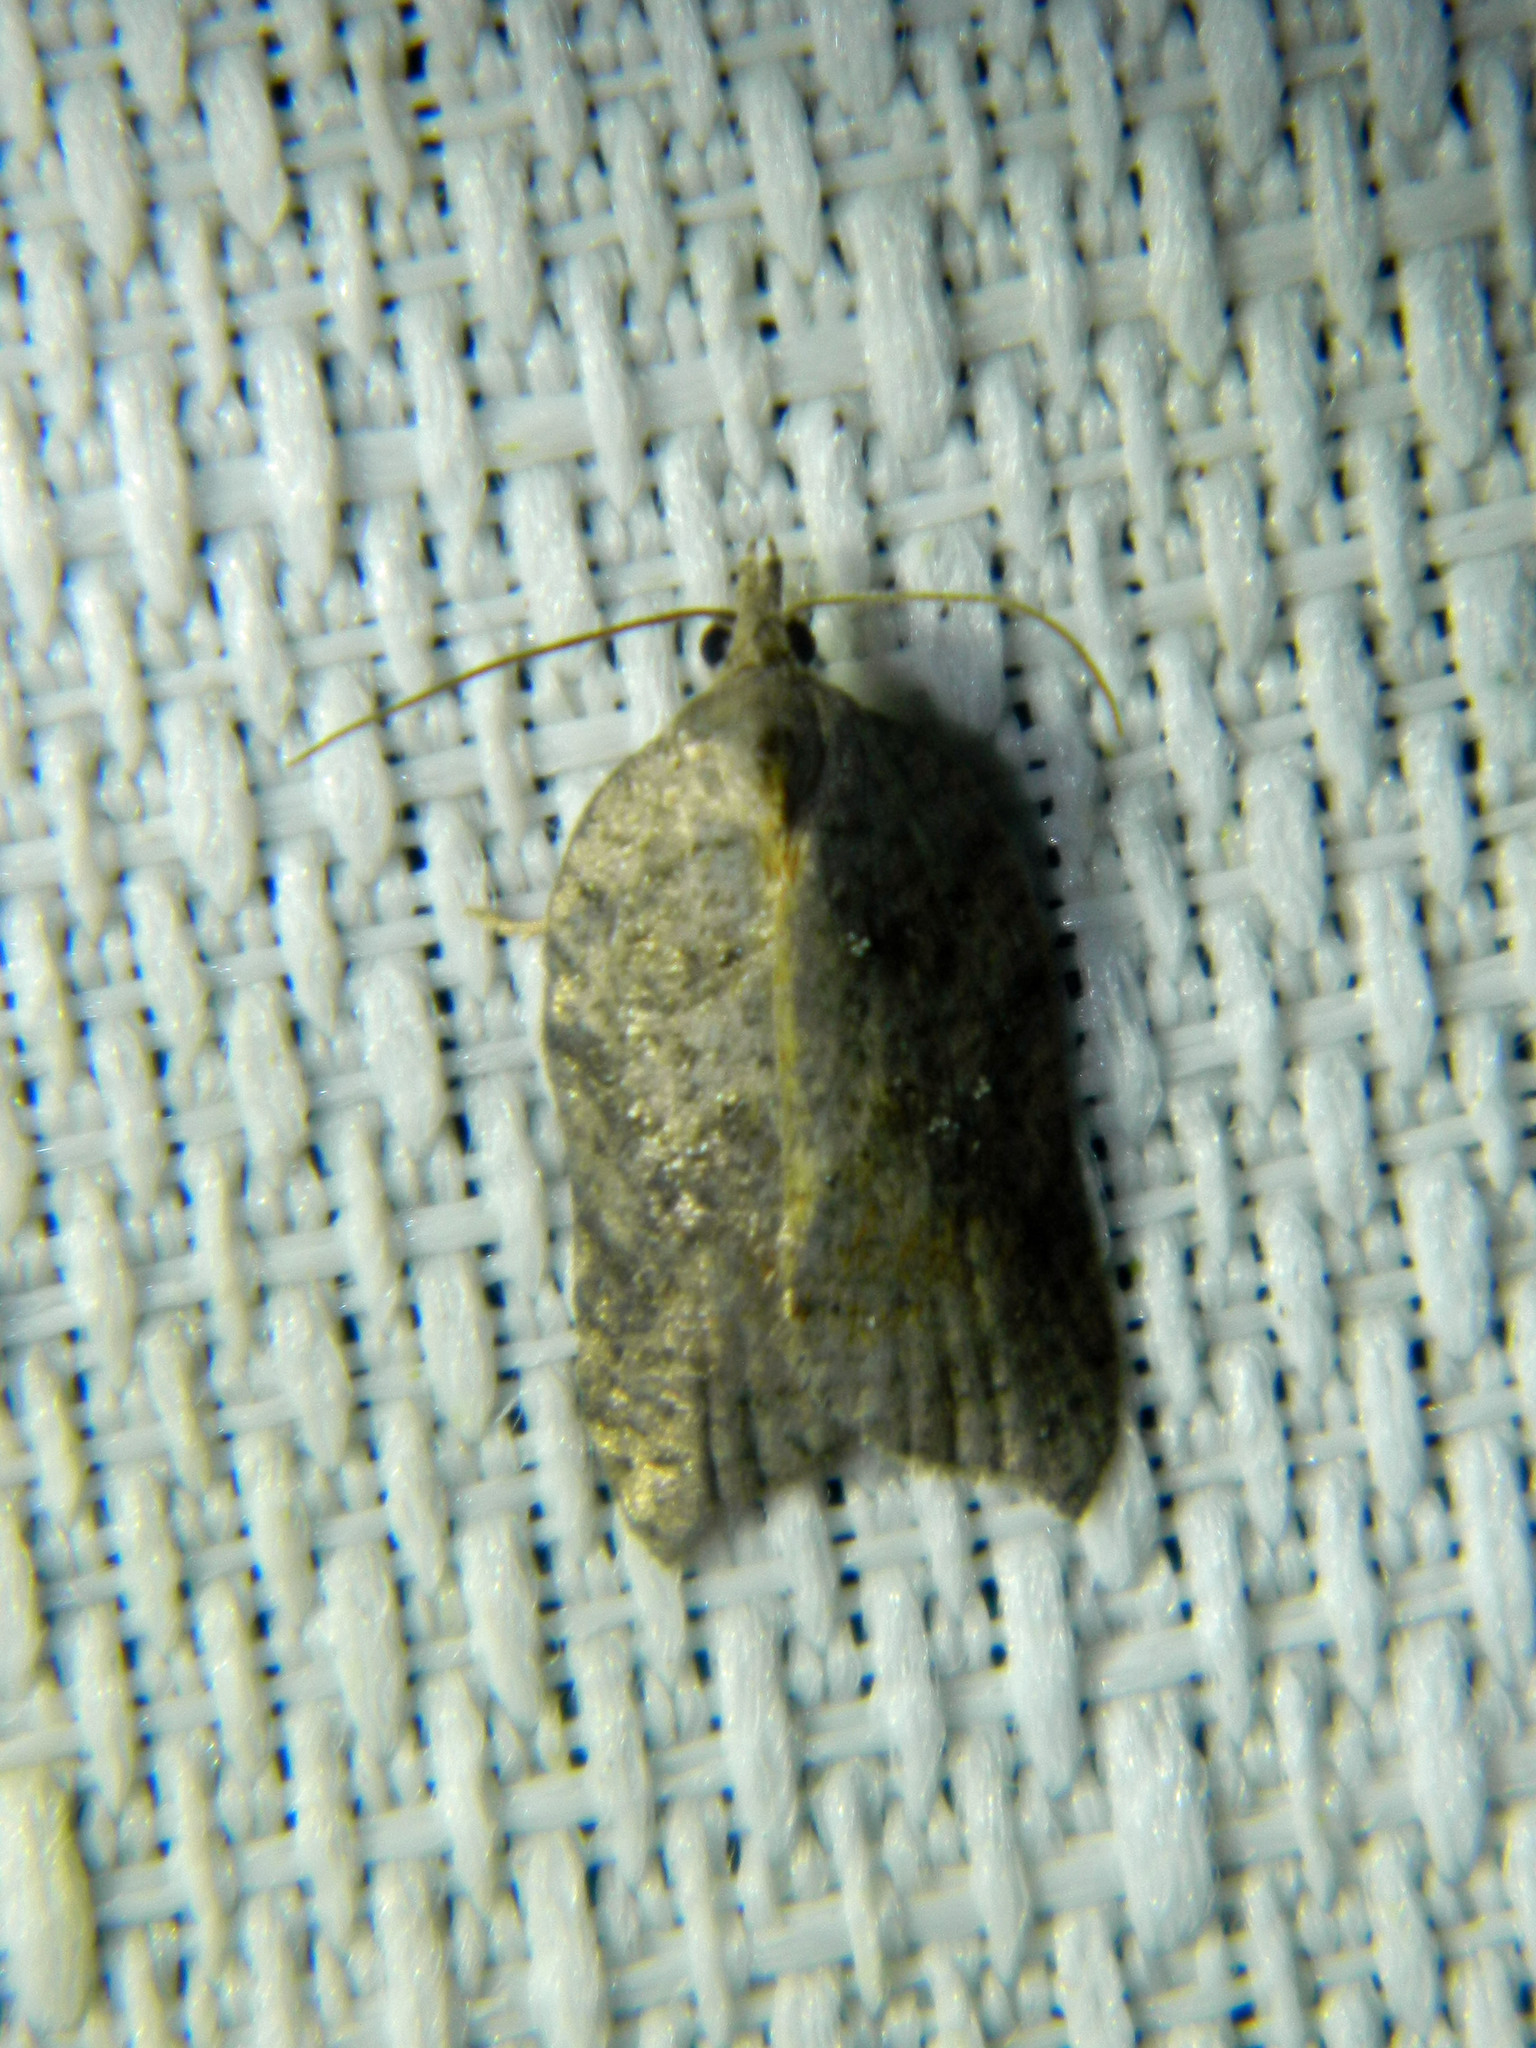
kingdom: Animalia
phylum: Arthropoda
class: Insecta
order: Lepidoptera
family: Tortricidae
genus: Acleris
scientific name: Acleris effractana
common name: Hook-winged tortrix moth
